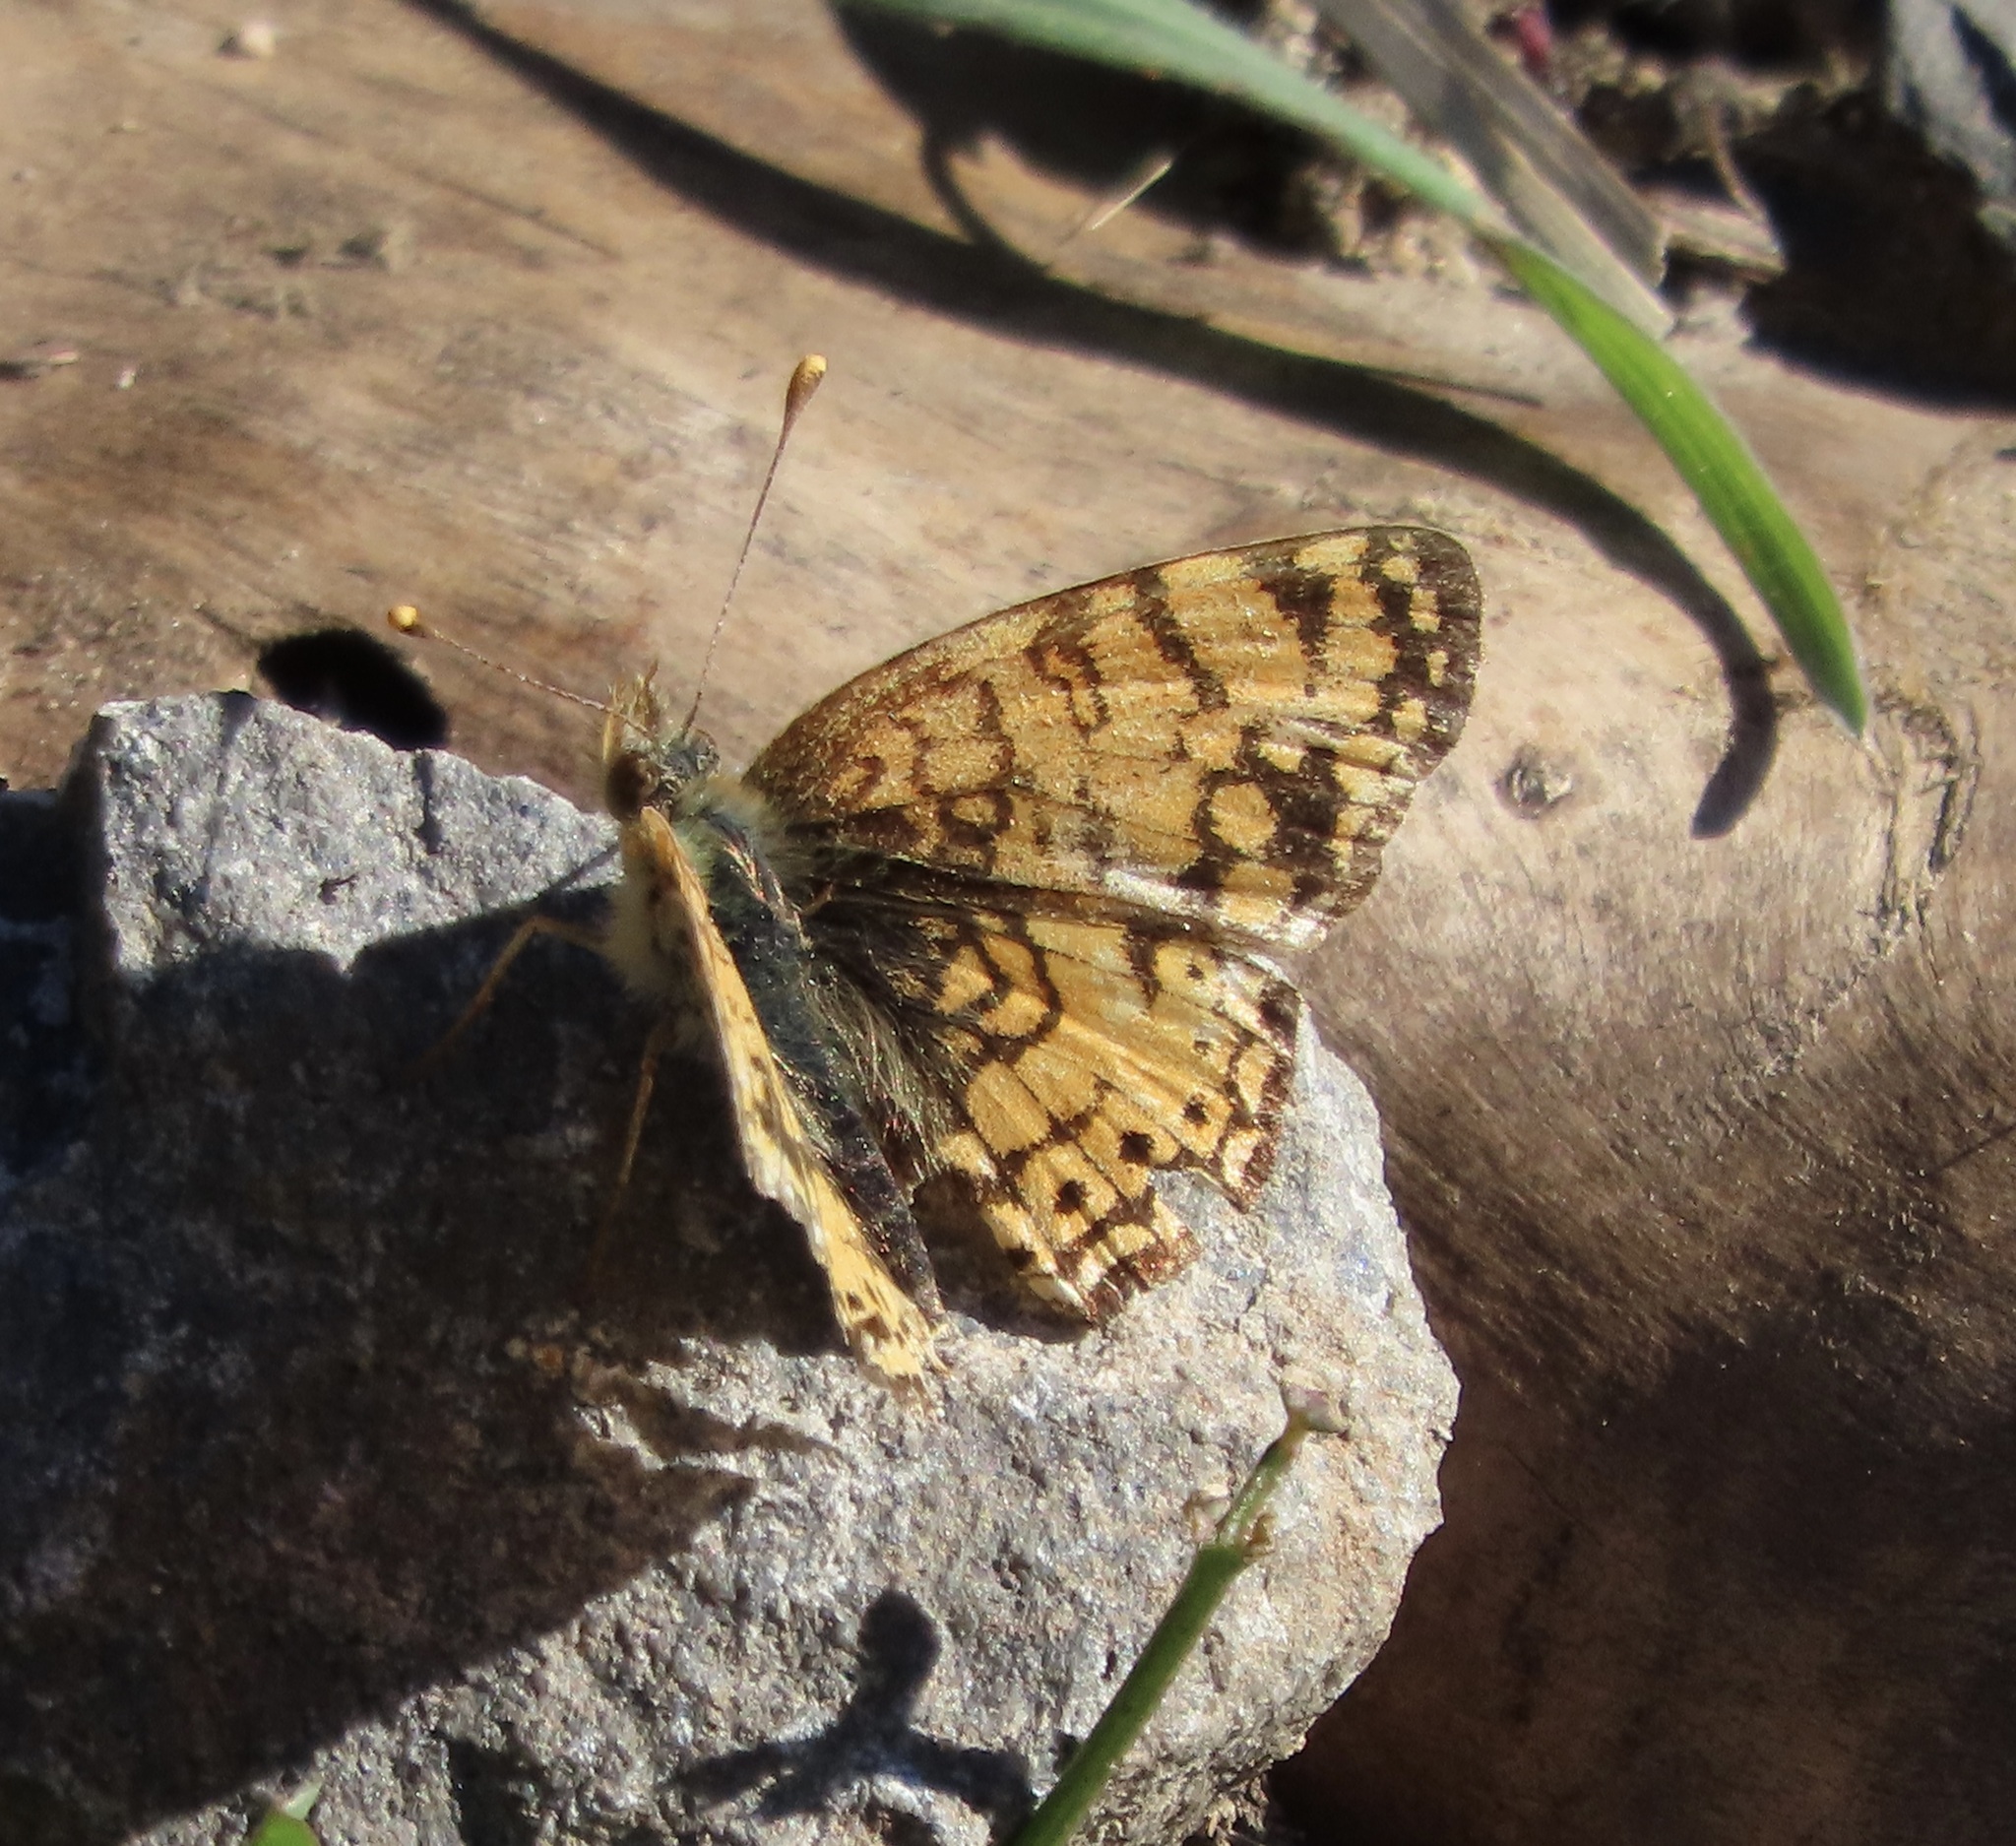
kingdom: Animalia
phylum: Arthropoda
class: Insecta
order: Lepidoptera
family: Nymphalidae
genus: Eresia
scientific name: Eresia aveyrona
